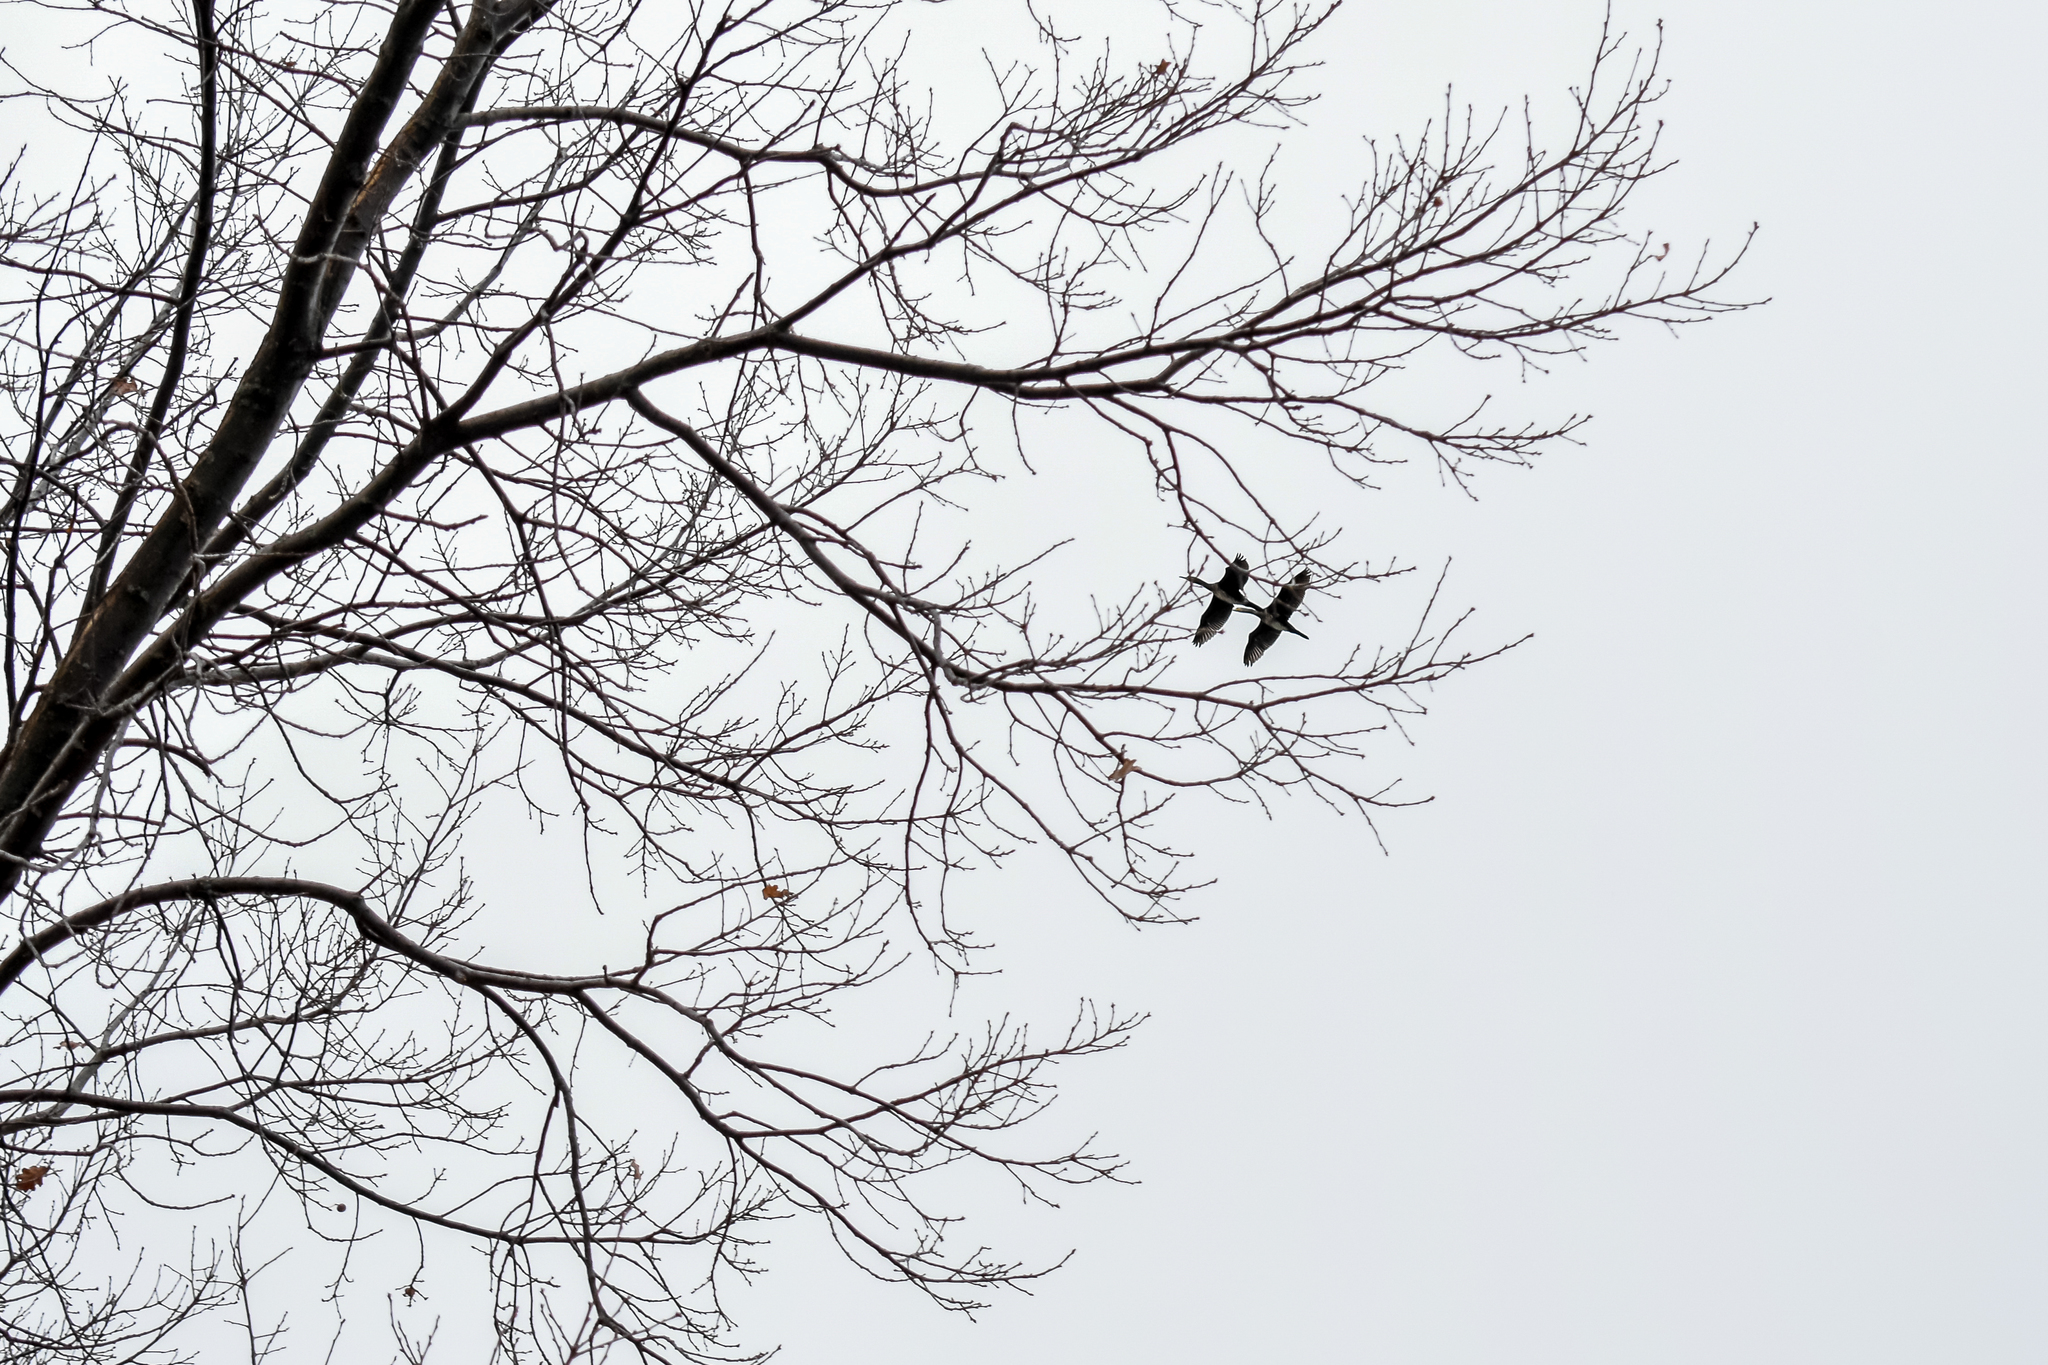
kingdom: Animalia
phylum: Chordata
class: Aves
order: Suliformes
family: Phalacrocoracidae
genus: Phalacrocorax
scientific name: Phalacrocorax carbo
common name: Great cormorant
